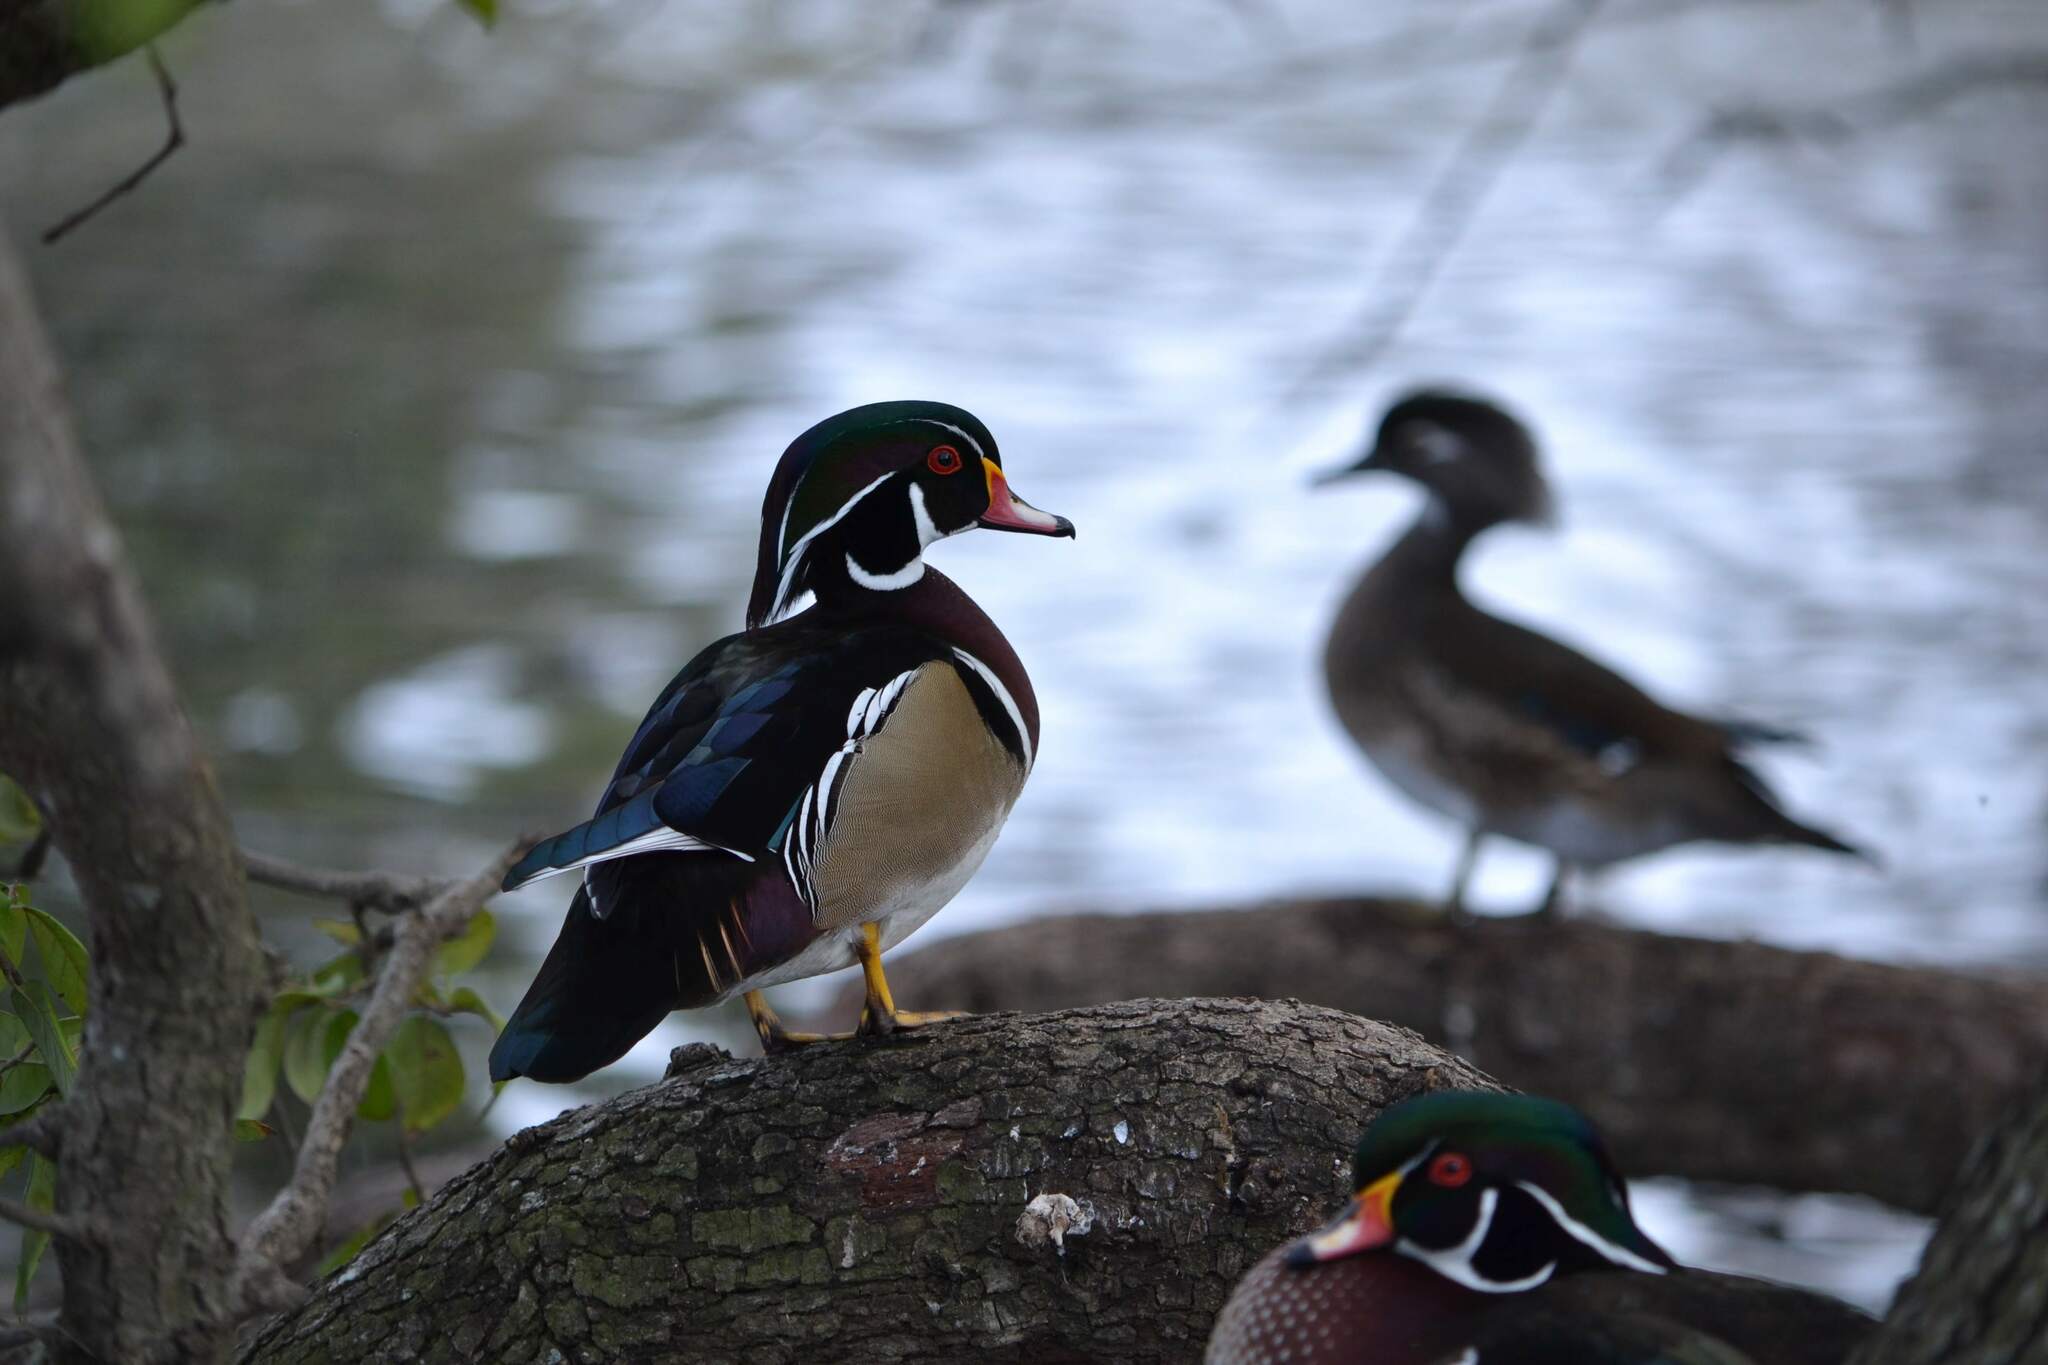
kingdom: Animalia
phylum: Chordata
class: Aves
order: Anseriformes
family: Anatidae
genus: Aix
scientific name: Aix sponsa
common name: Wood duck
